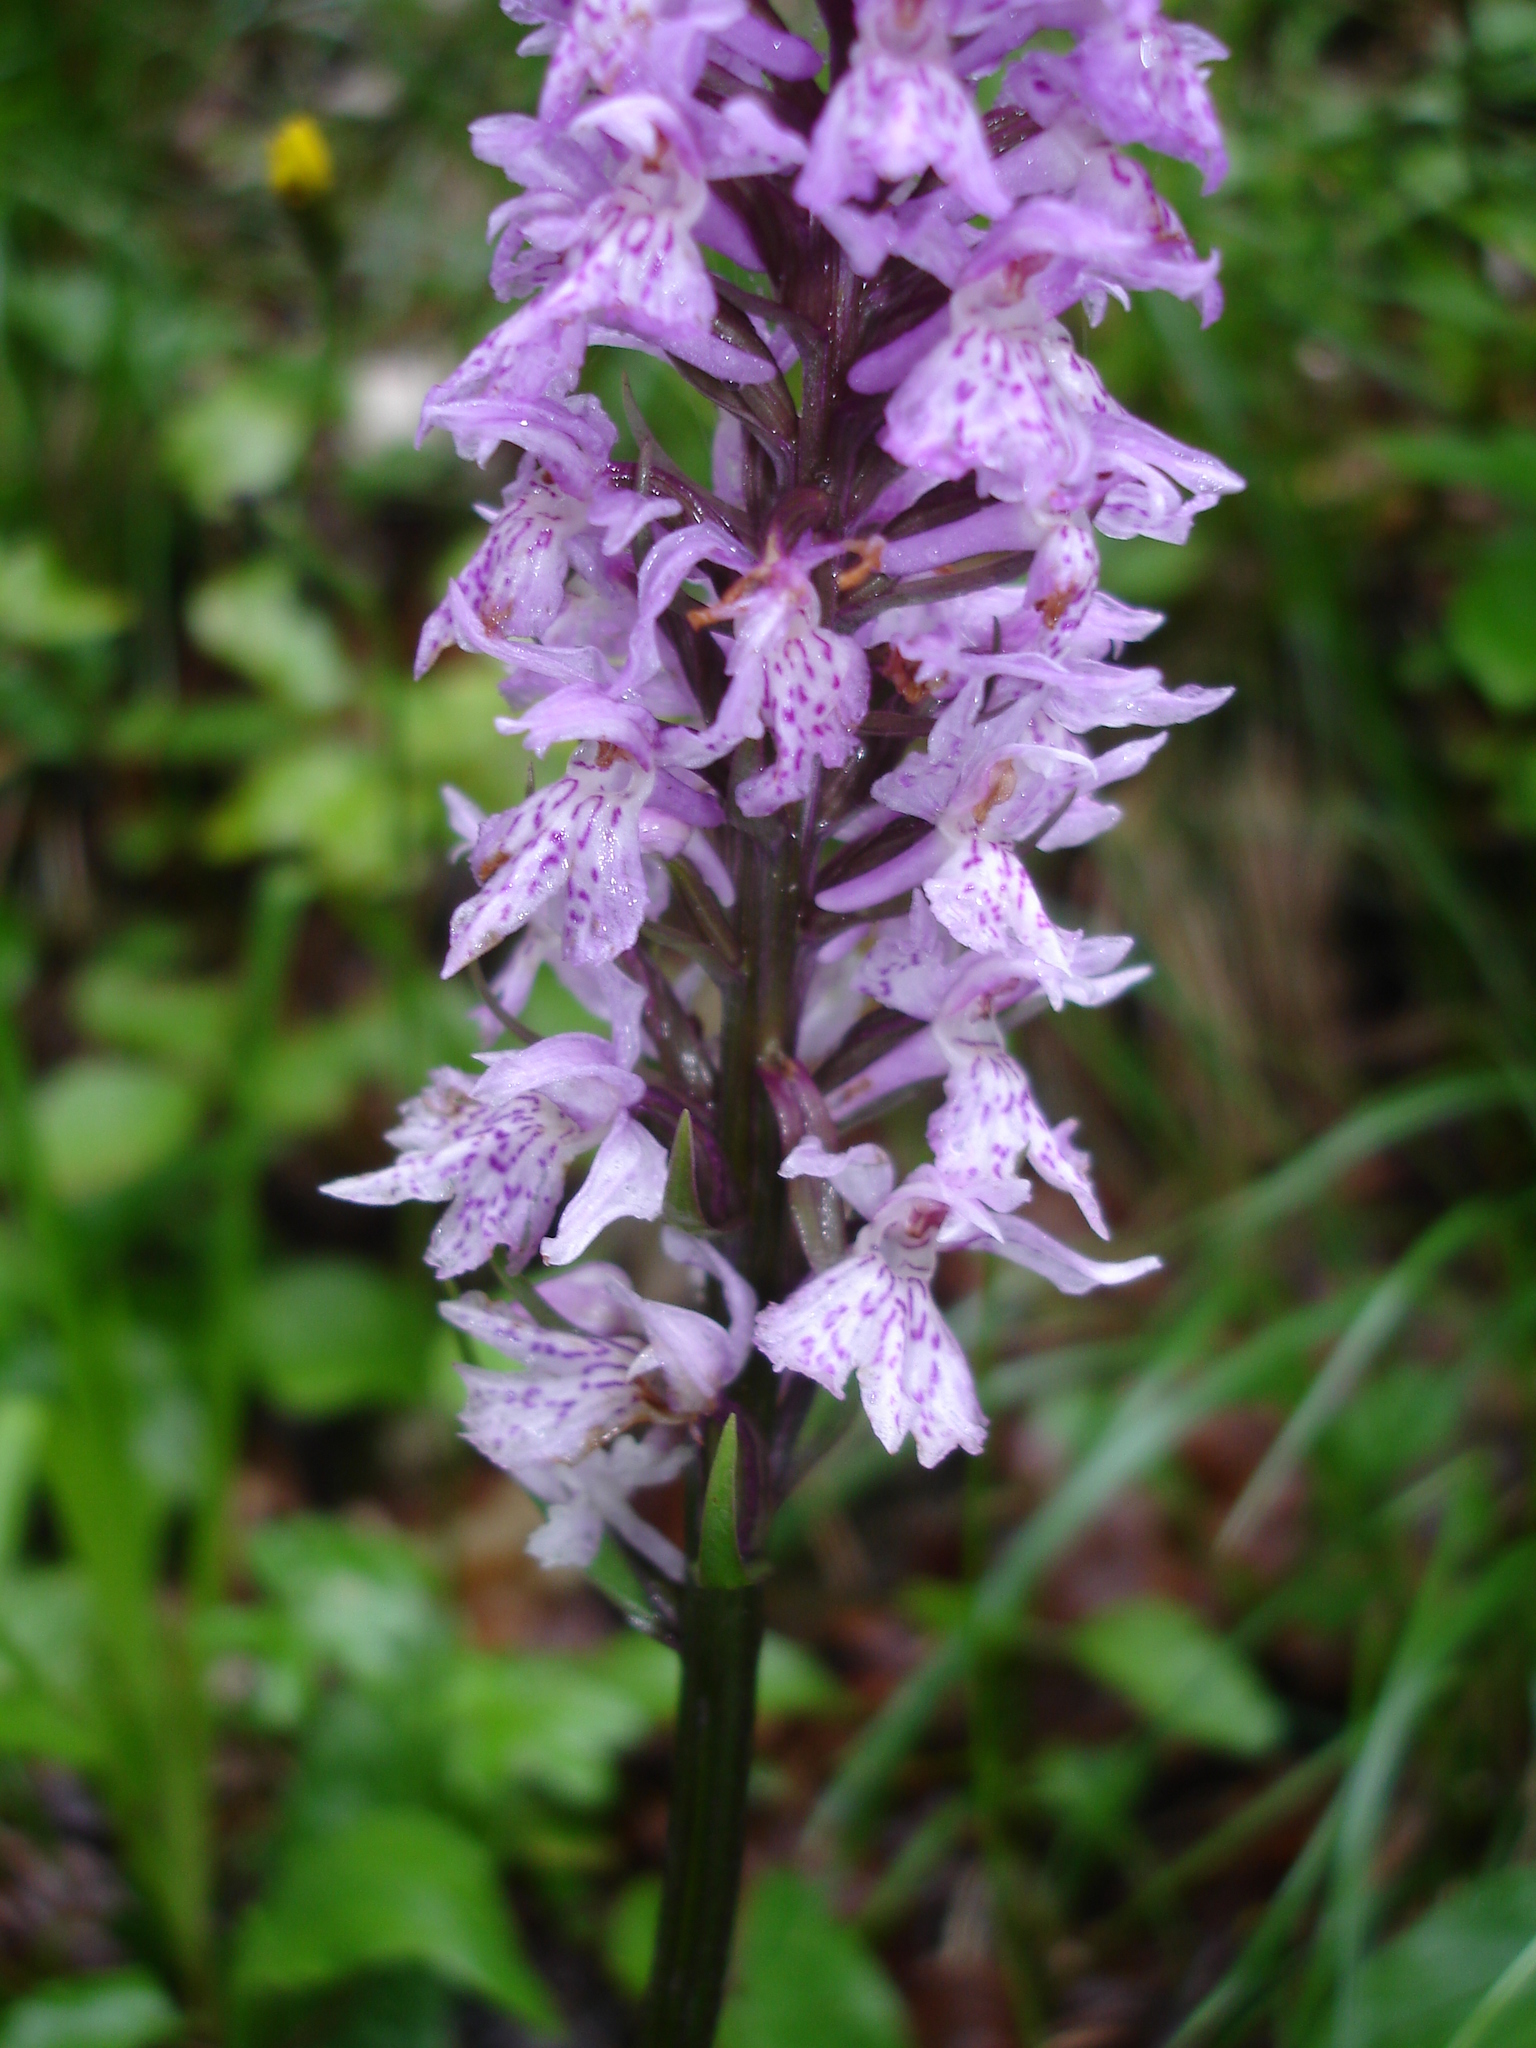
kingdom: Plantae
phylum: Tracheophyta
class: Liliopsida
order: Asparagales
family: Orchidaceae
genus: Dactylorhiza
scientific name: Dactylorhiza maculata
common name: Heath spotted-orchid
